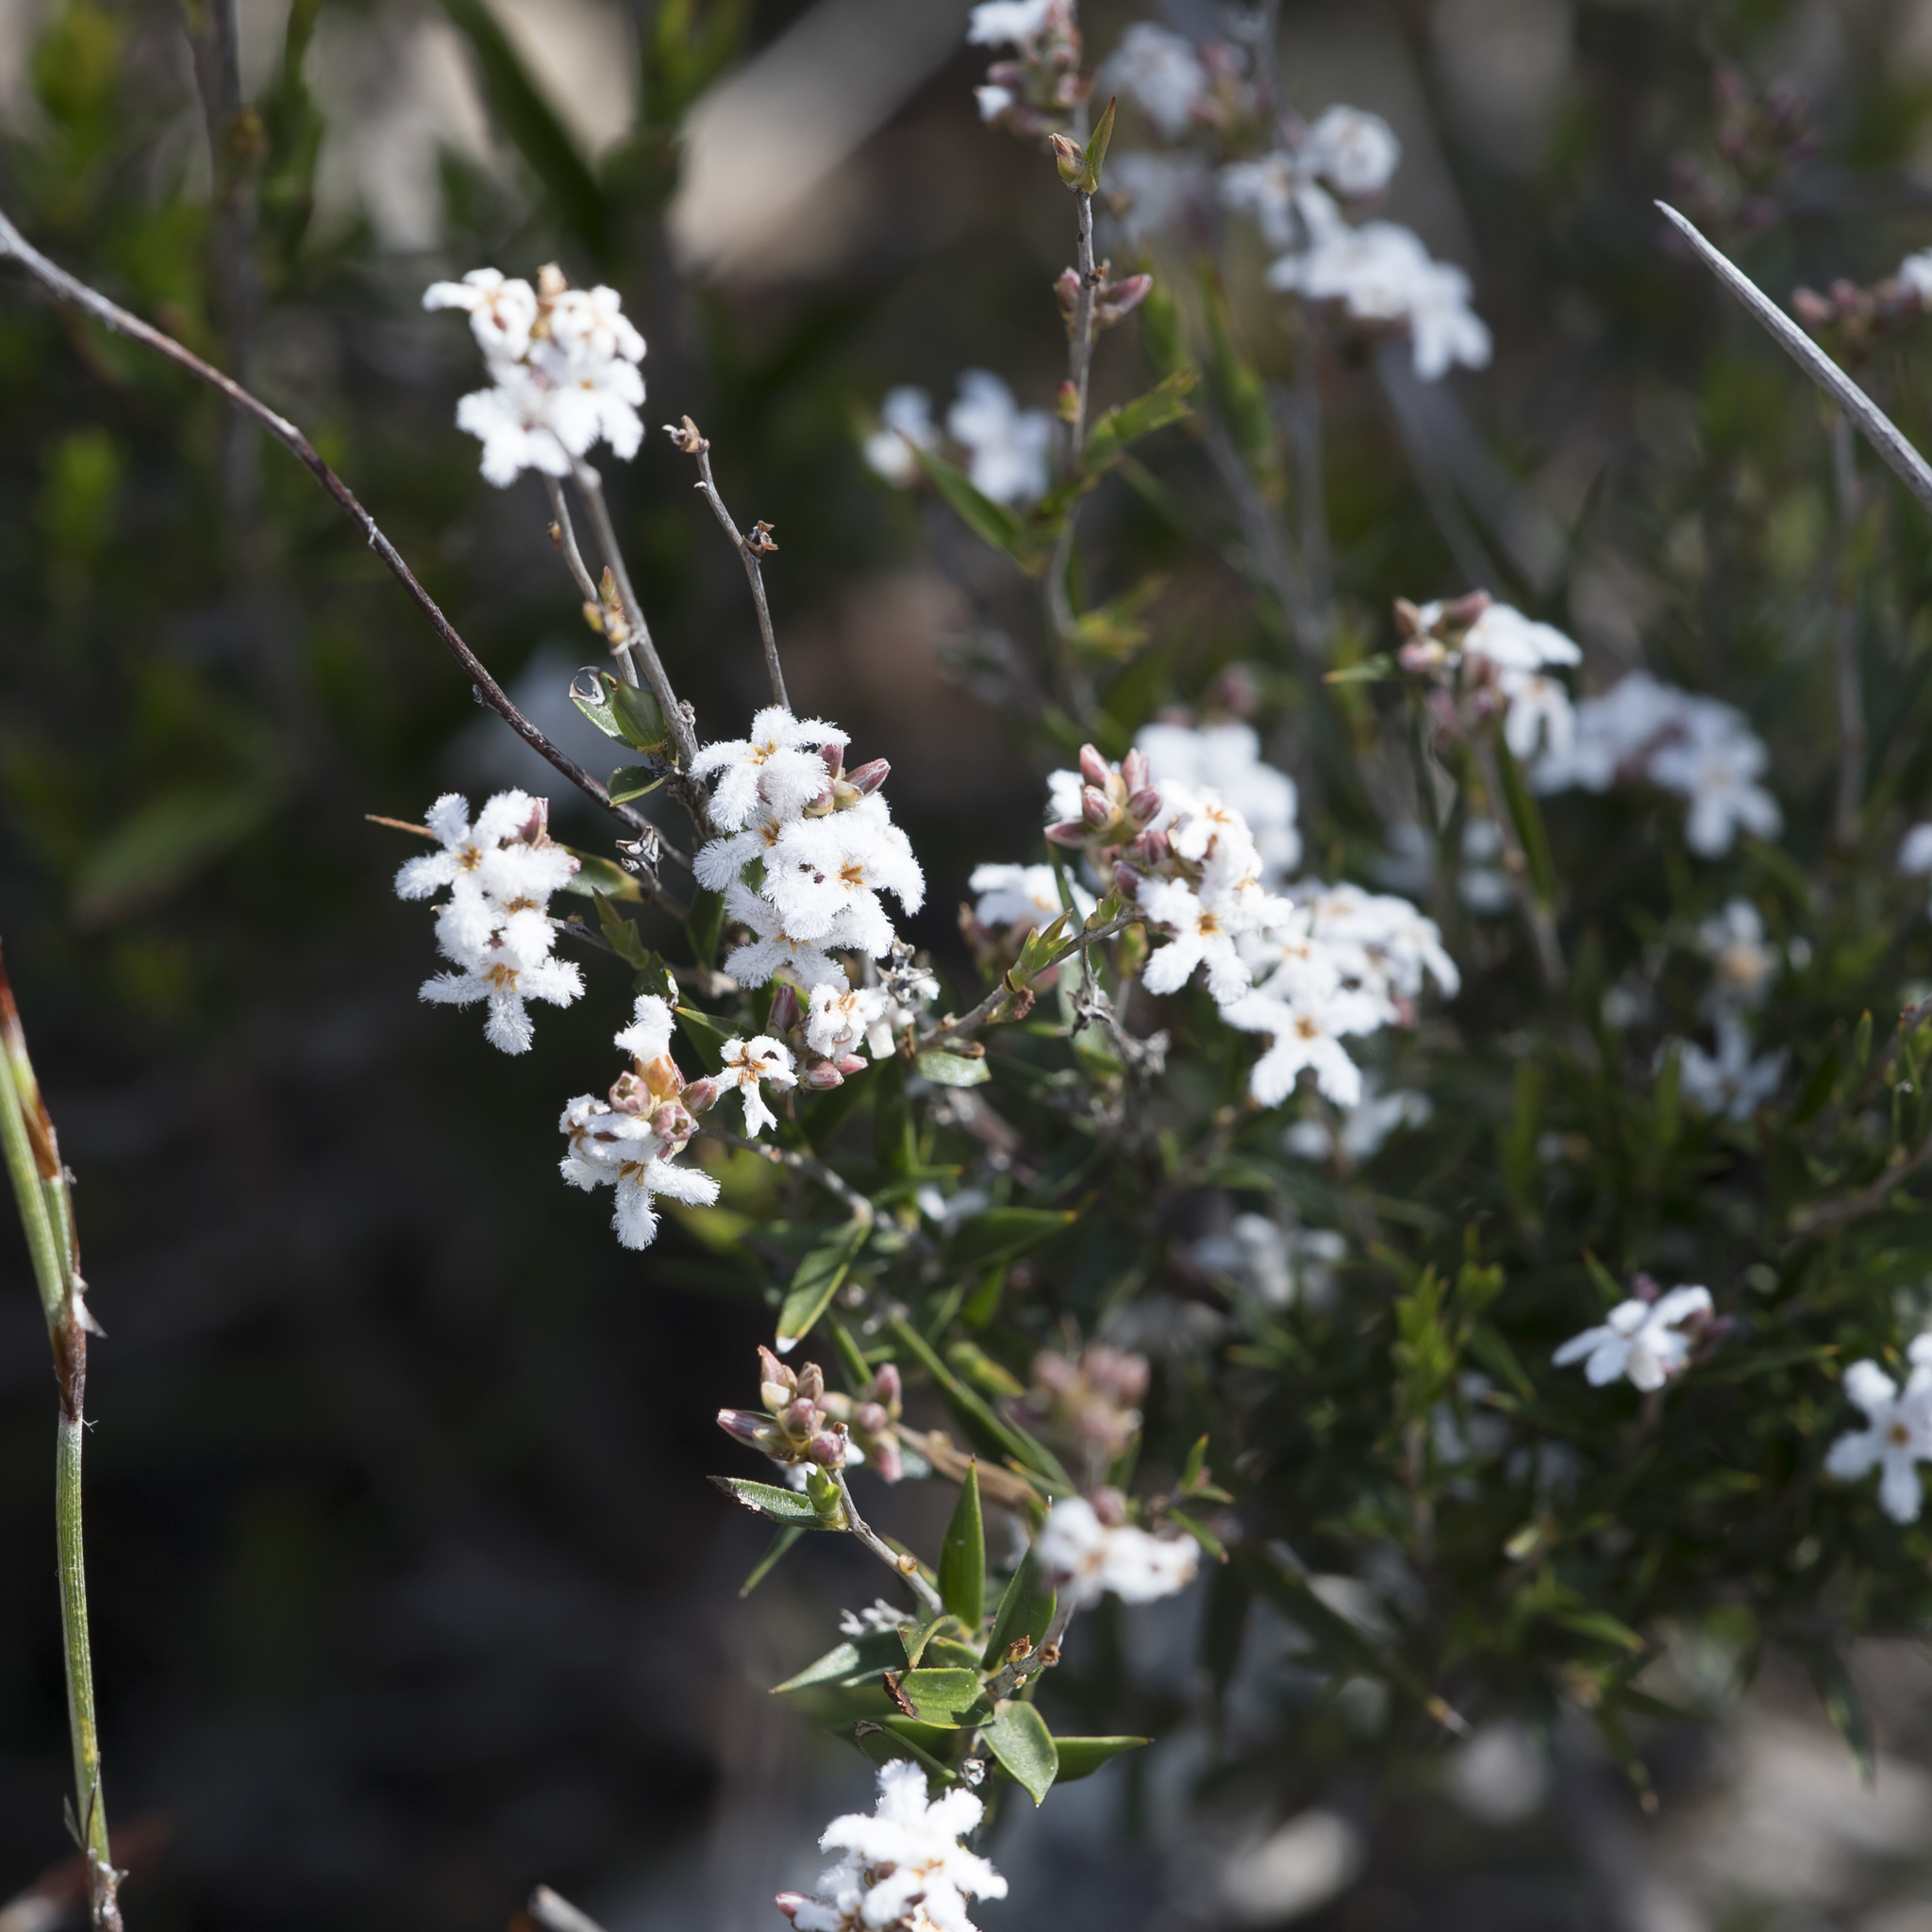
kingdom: Plantae
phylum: Tracheophyta
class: Magnoliopsida
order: Ericales
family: Ericaceae
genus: Leucopogon
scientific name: Leucopogon virgatus
